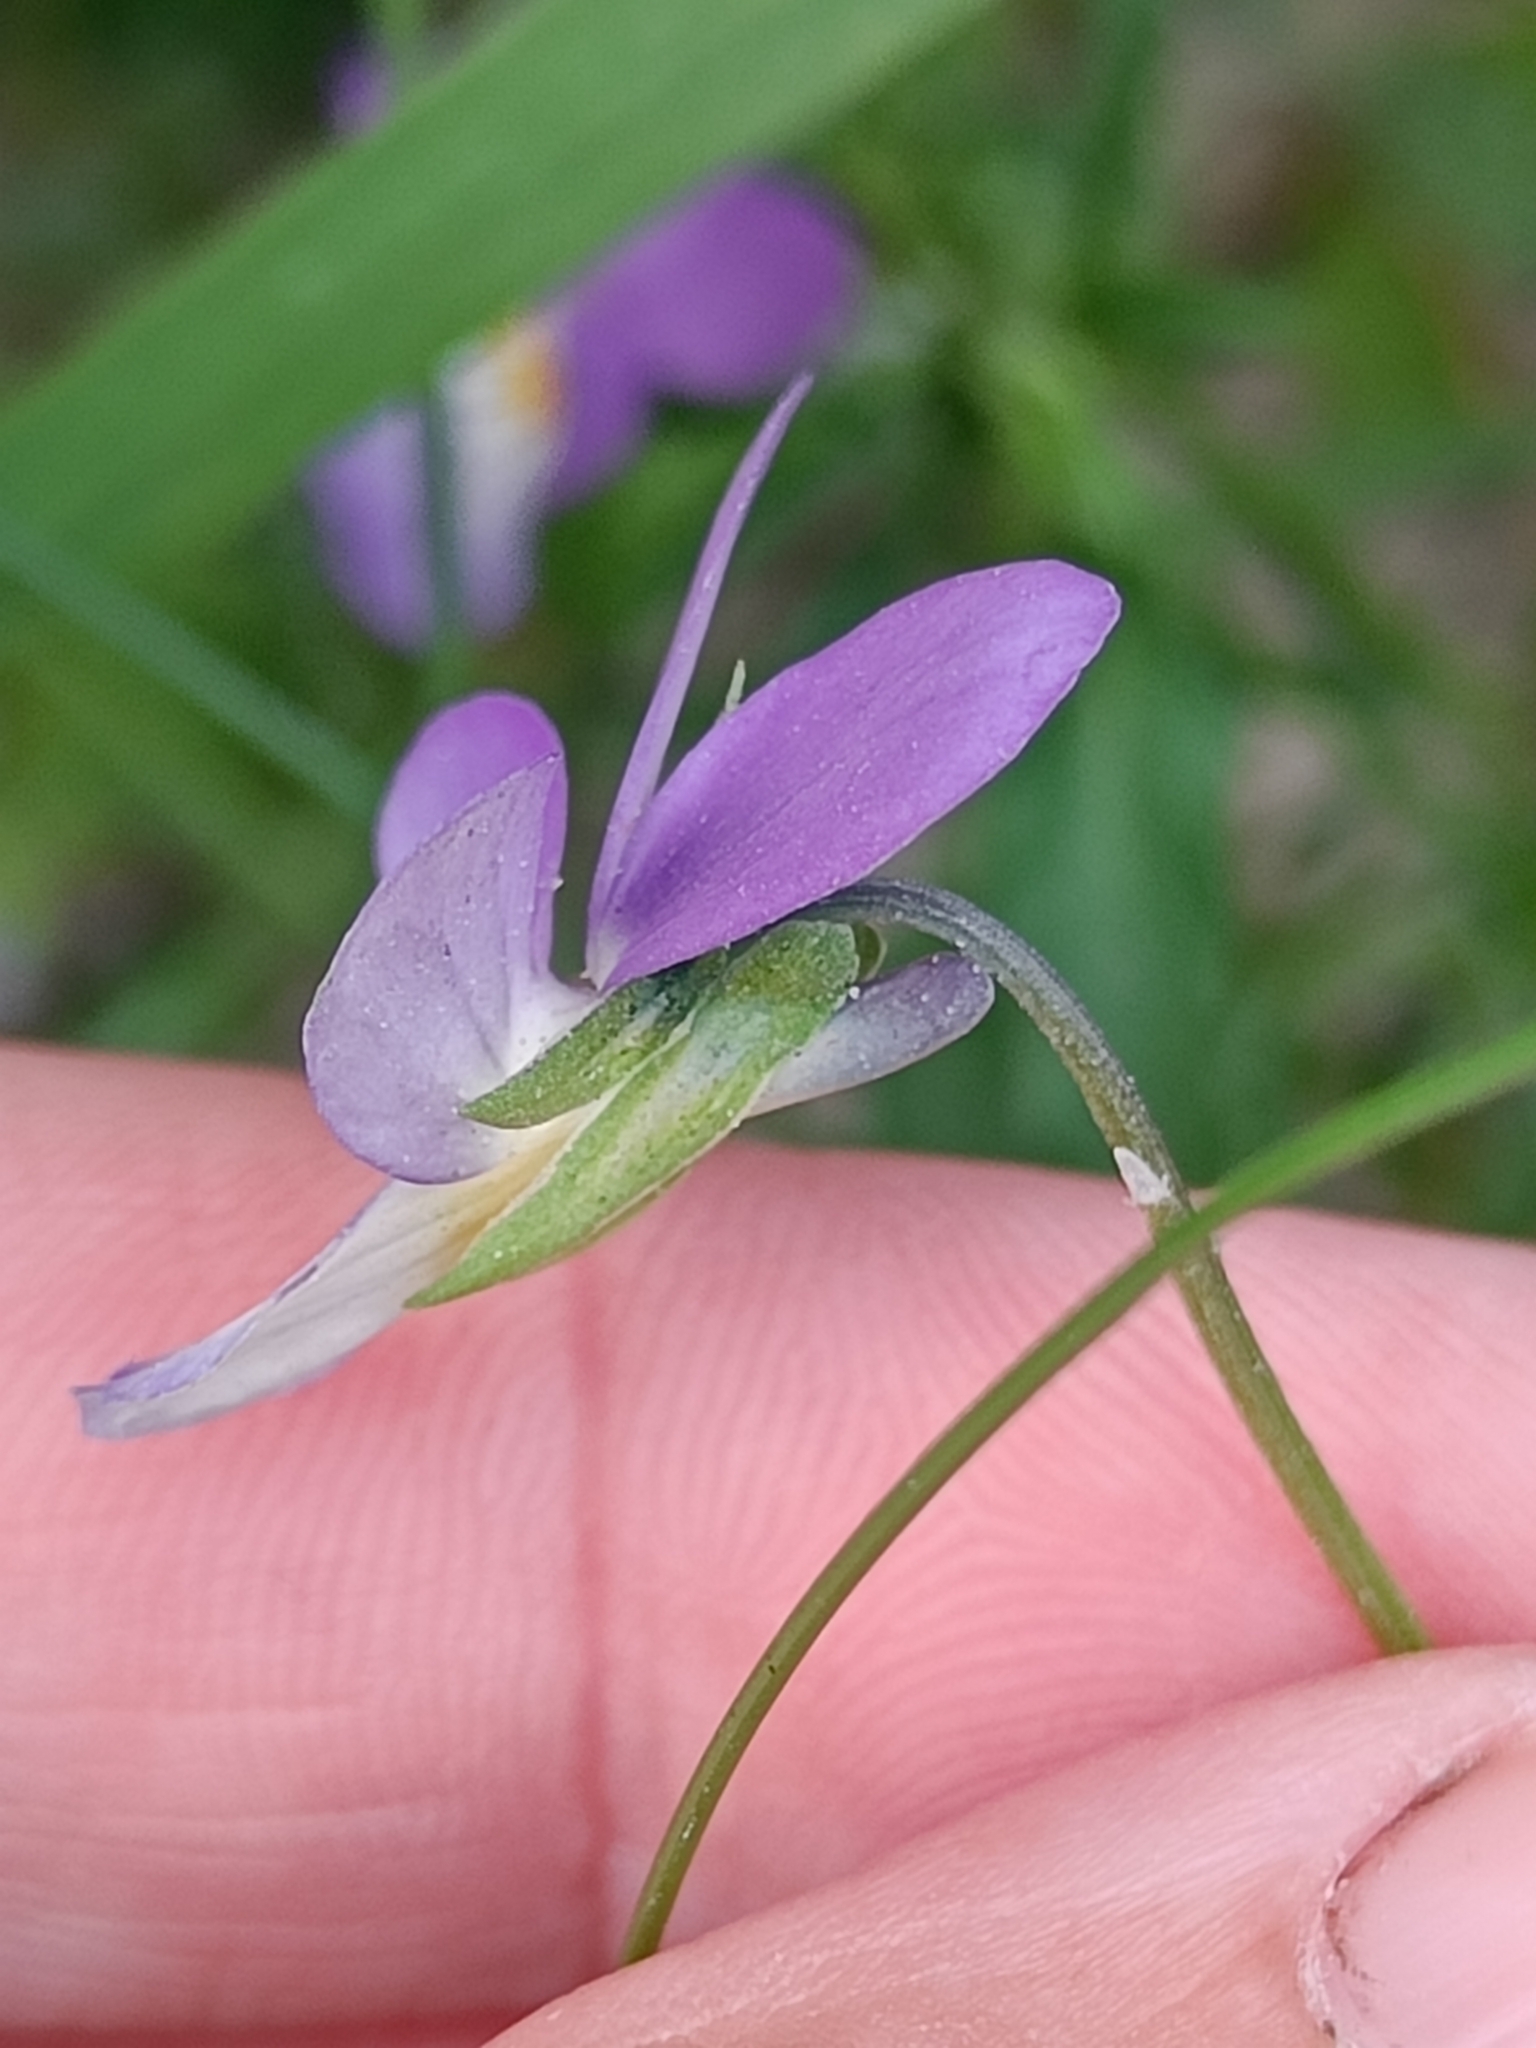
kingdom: Plantae
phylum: Tracheophyta
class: Magnoliopsida
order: Malpighiales
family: Violaceae
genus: Viola
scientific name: Viola tricolor
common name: Pansy
